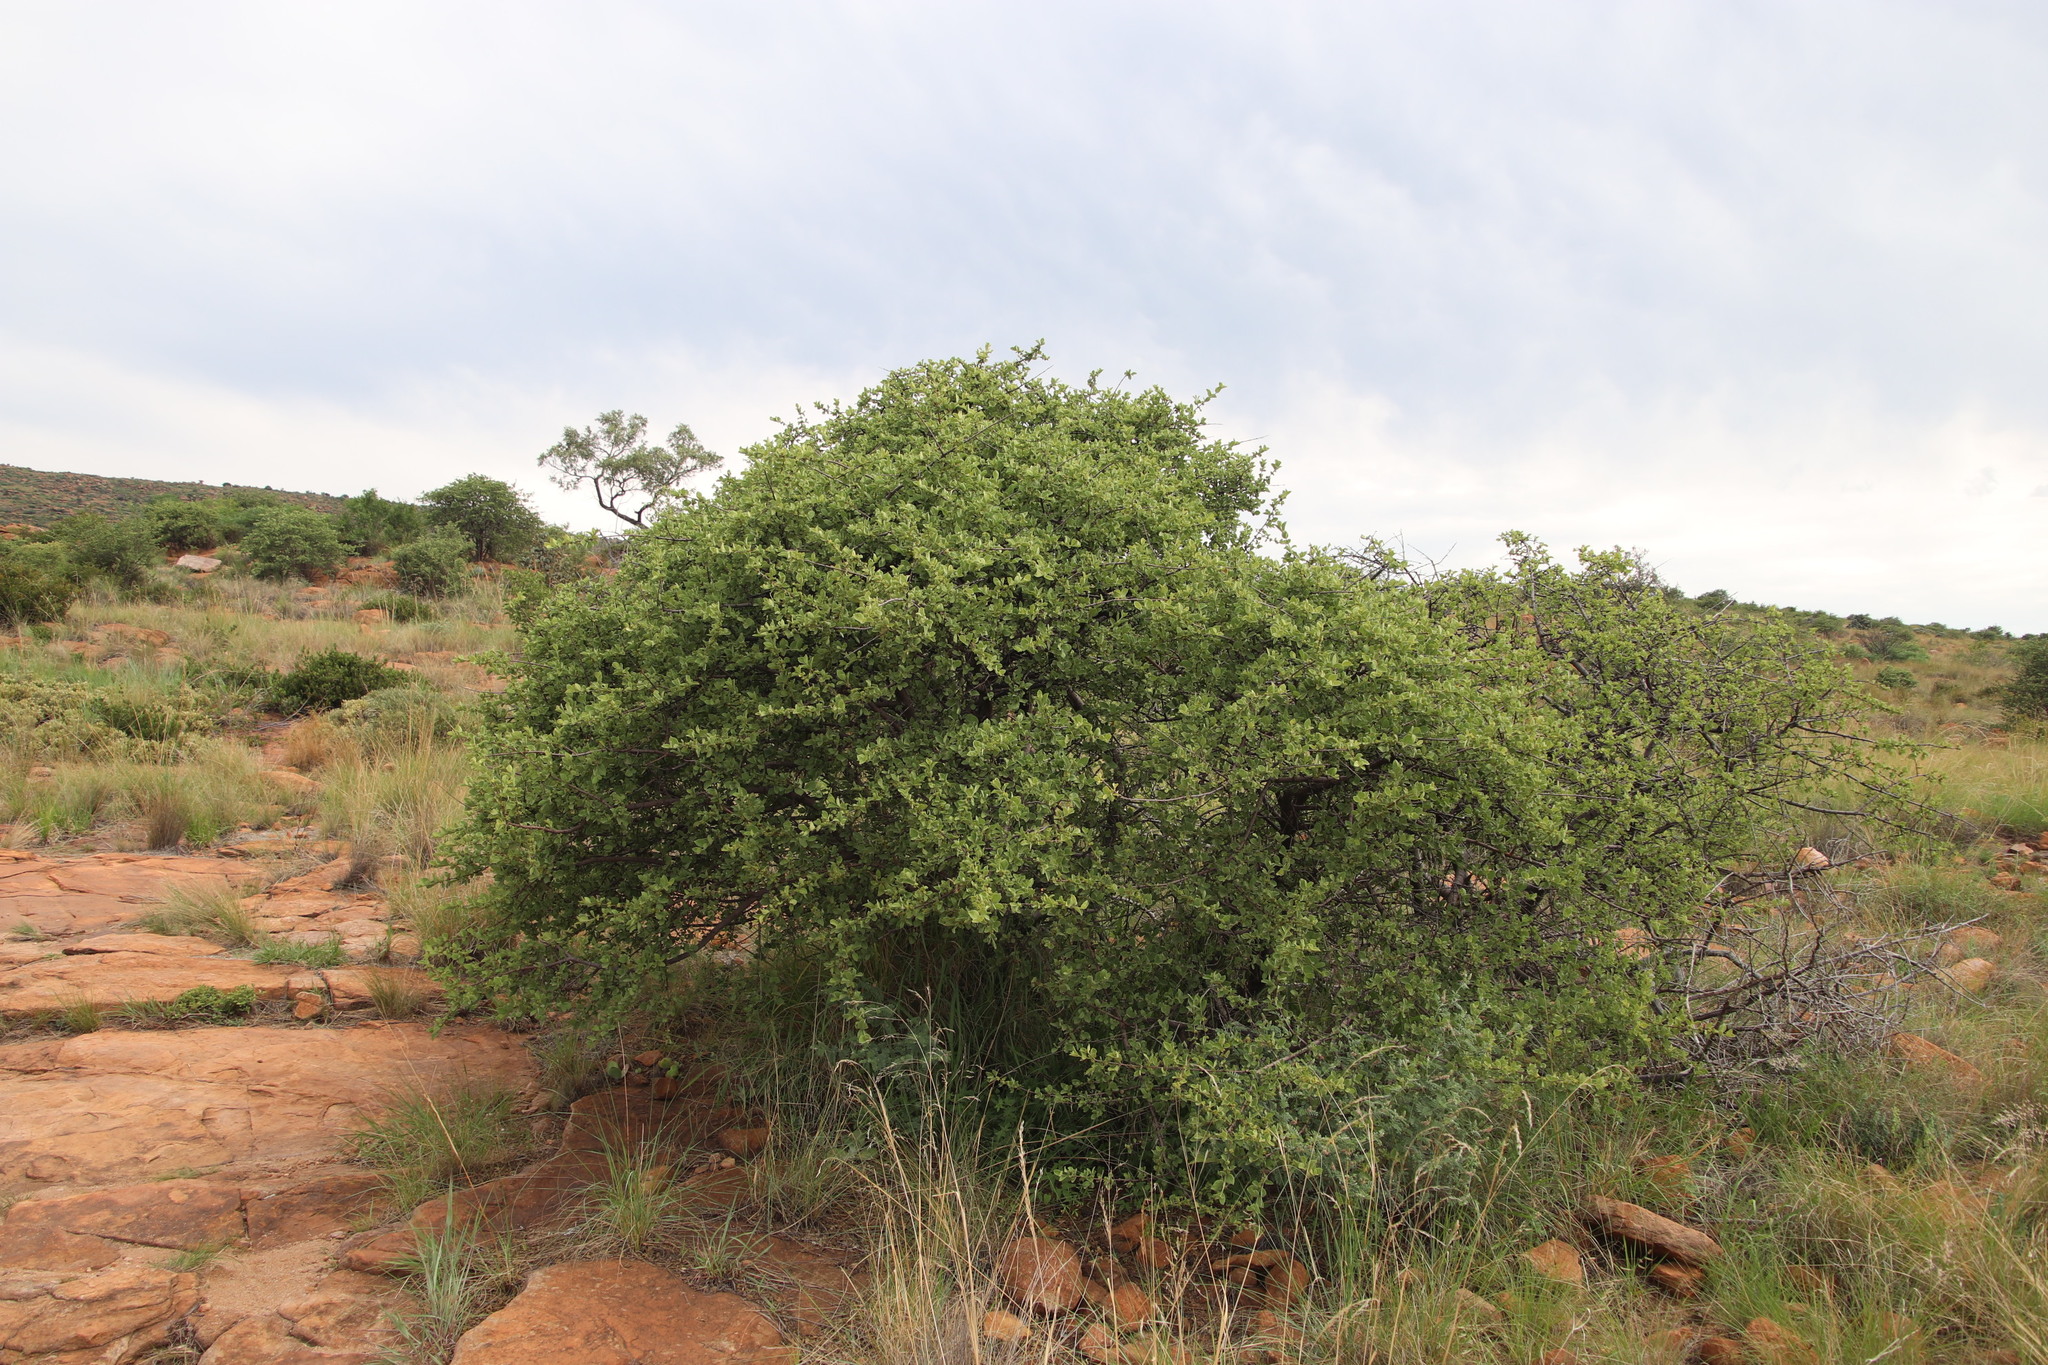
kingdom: Plantae
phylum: Tracheophyta
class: Magnoliopsida
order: Gentianales
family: Rubiaceae
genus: Vangueria
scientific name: Vangueria parvifolia
